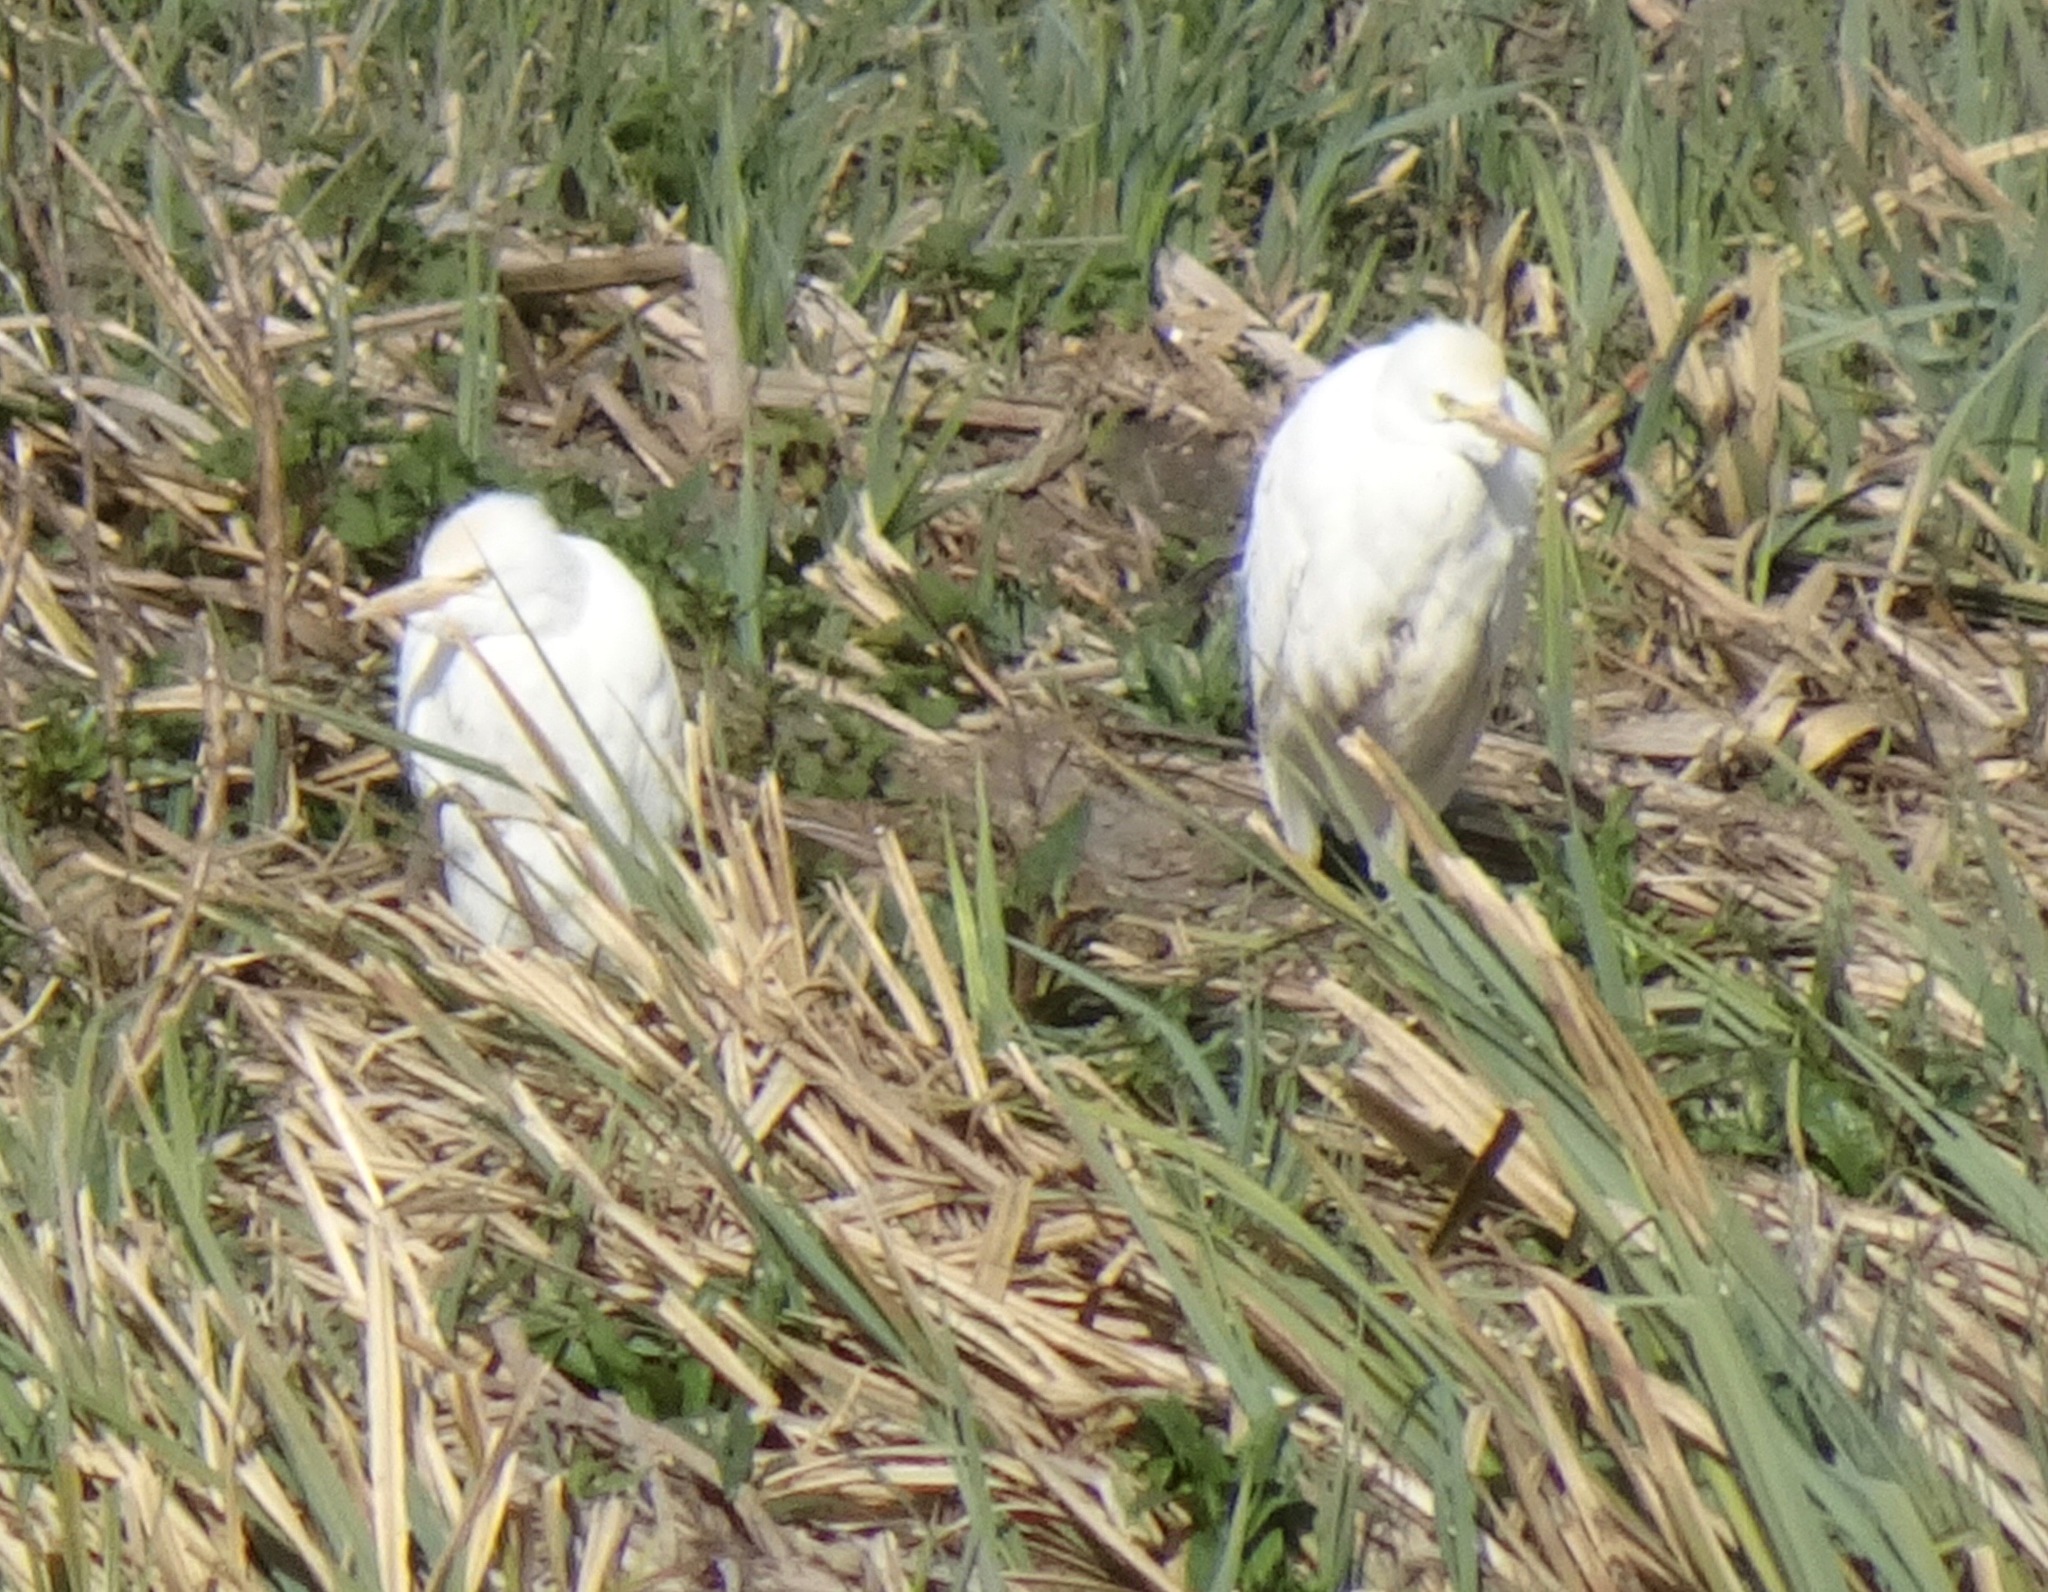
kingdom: Animalia
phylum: Chordata
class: Aves
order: Pelecaniformes
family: Ardeidae
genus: Bubulcus
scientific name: Bubulcus ibis
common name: Cattle egret
